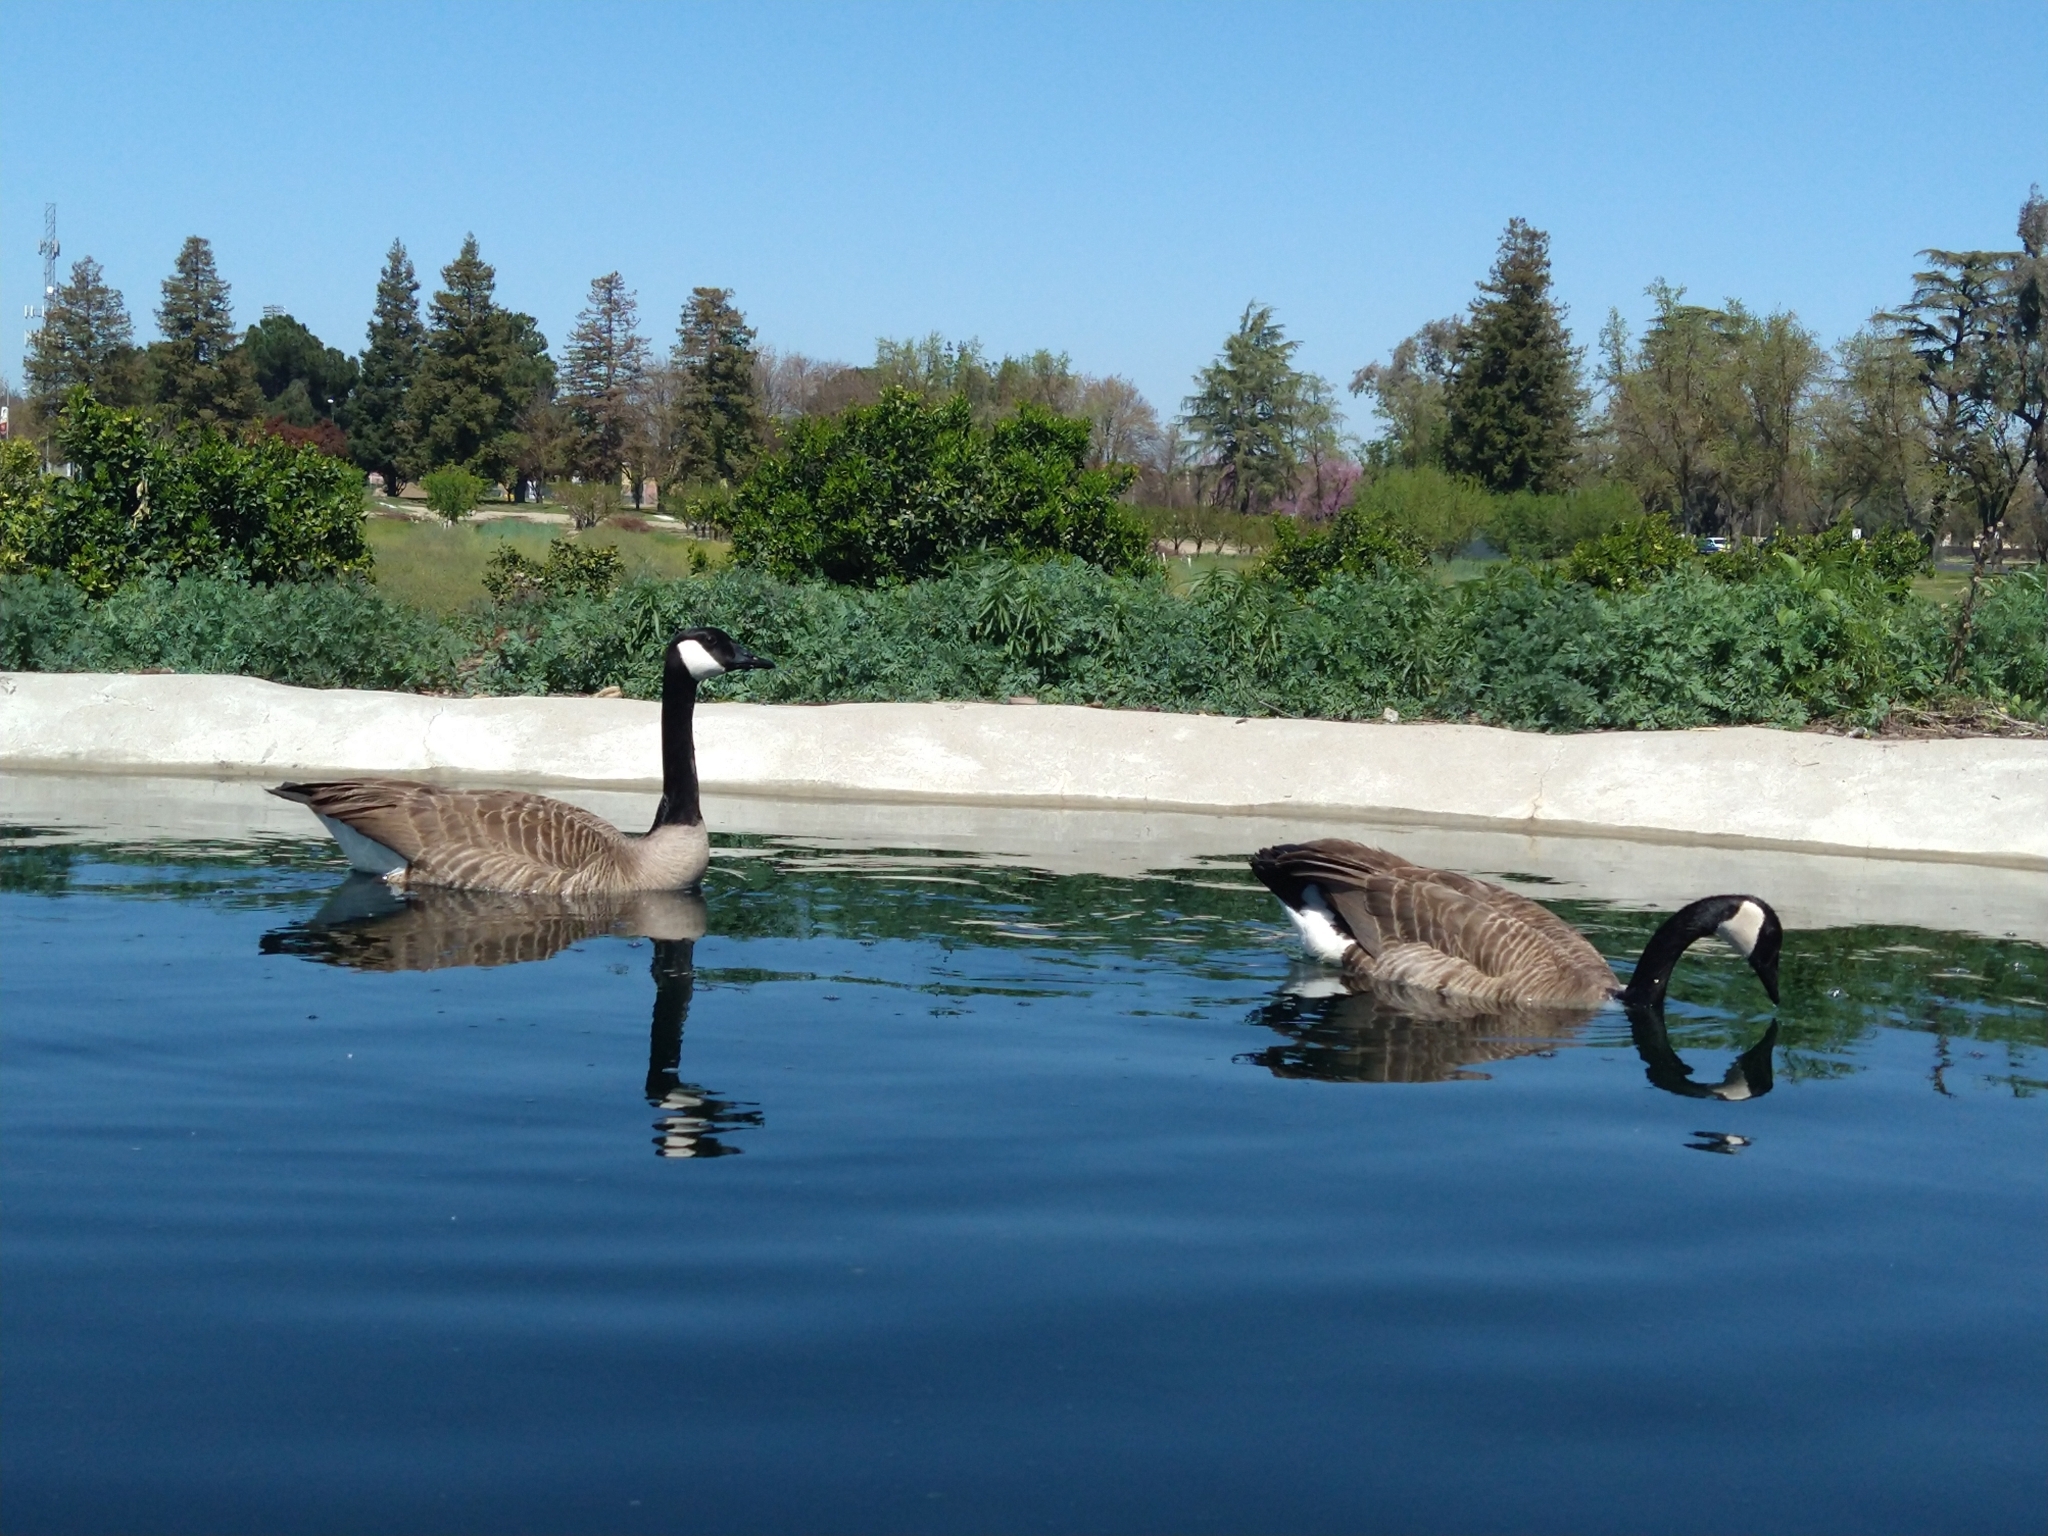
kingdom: Animalia
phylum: Chordata
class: Aves
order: Anseriformes
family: Anatidae
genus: Branta
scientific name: Branta canadensis
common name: Canada goose
